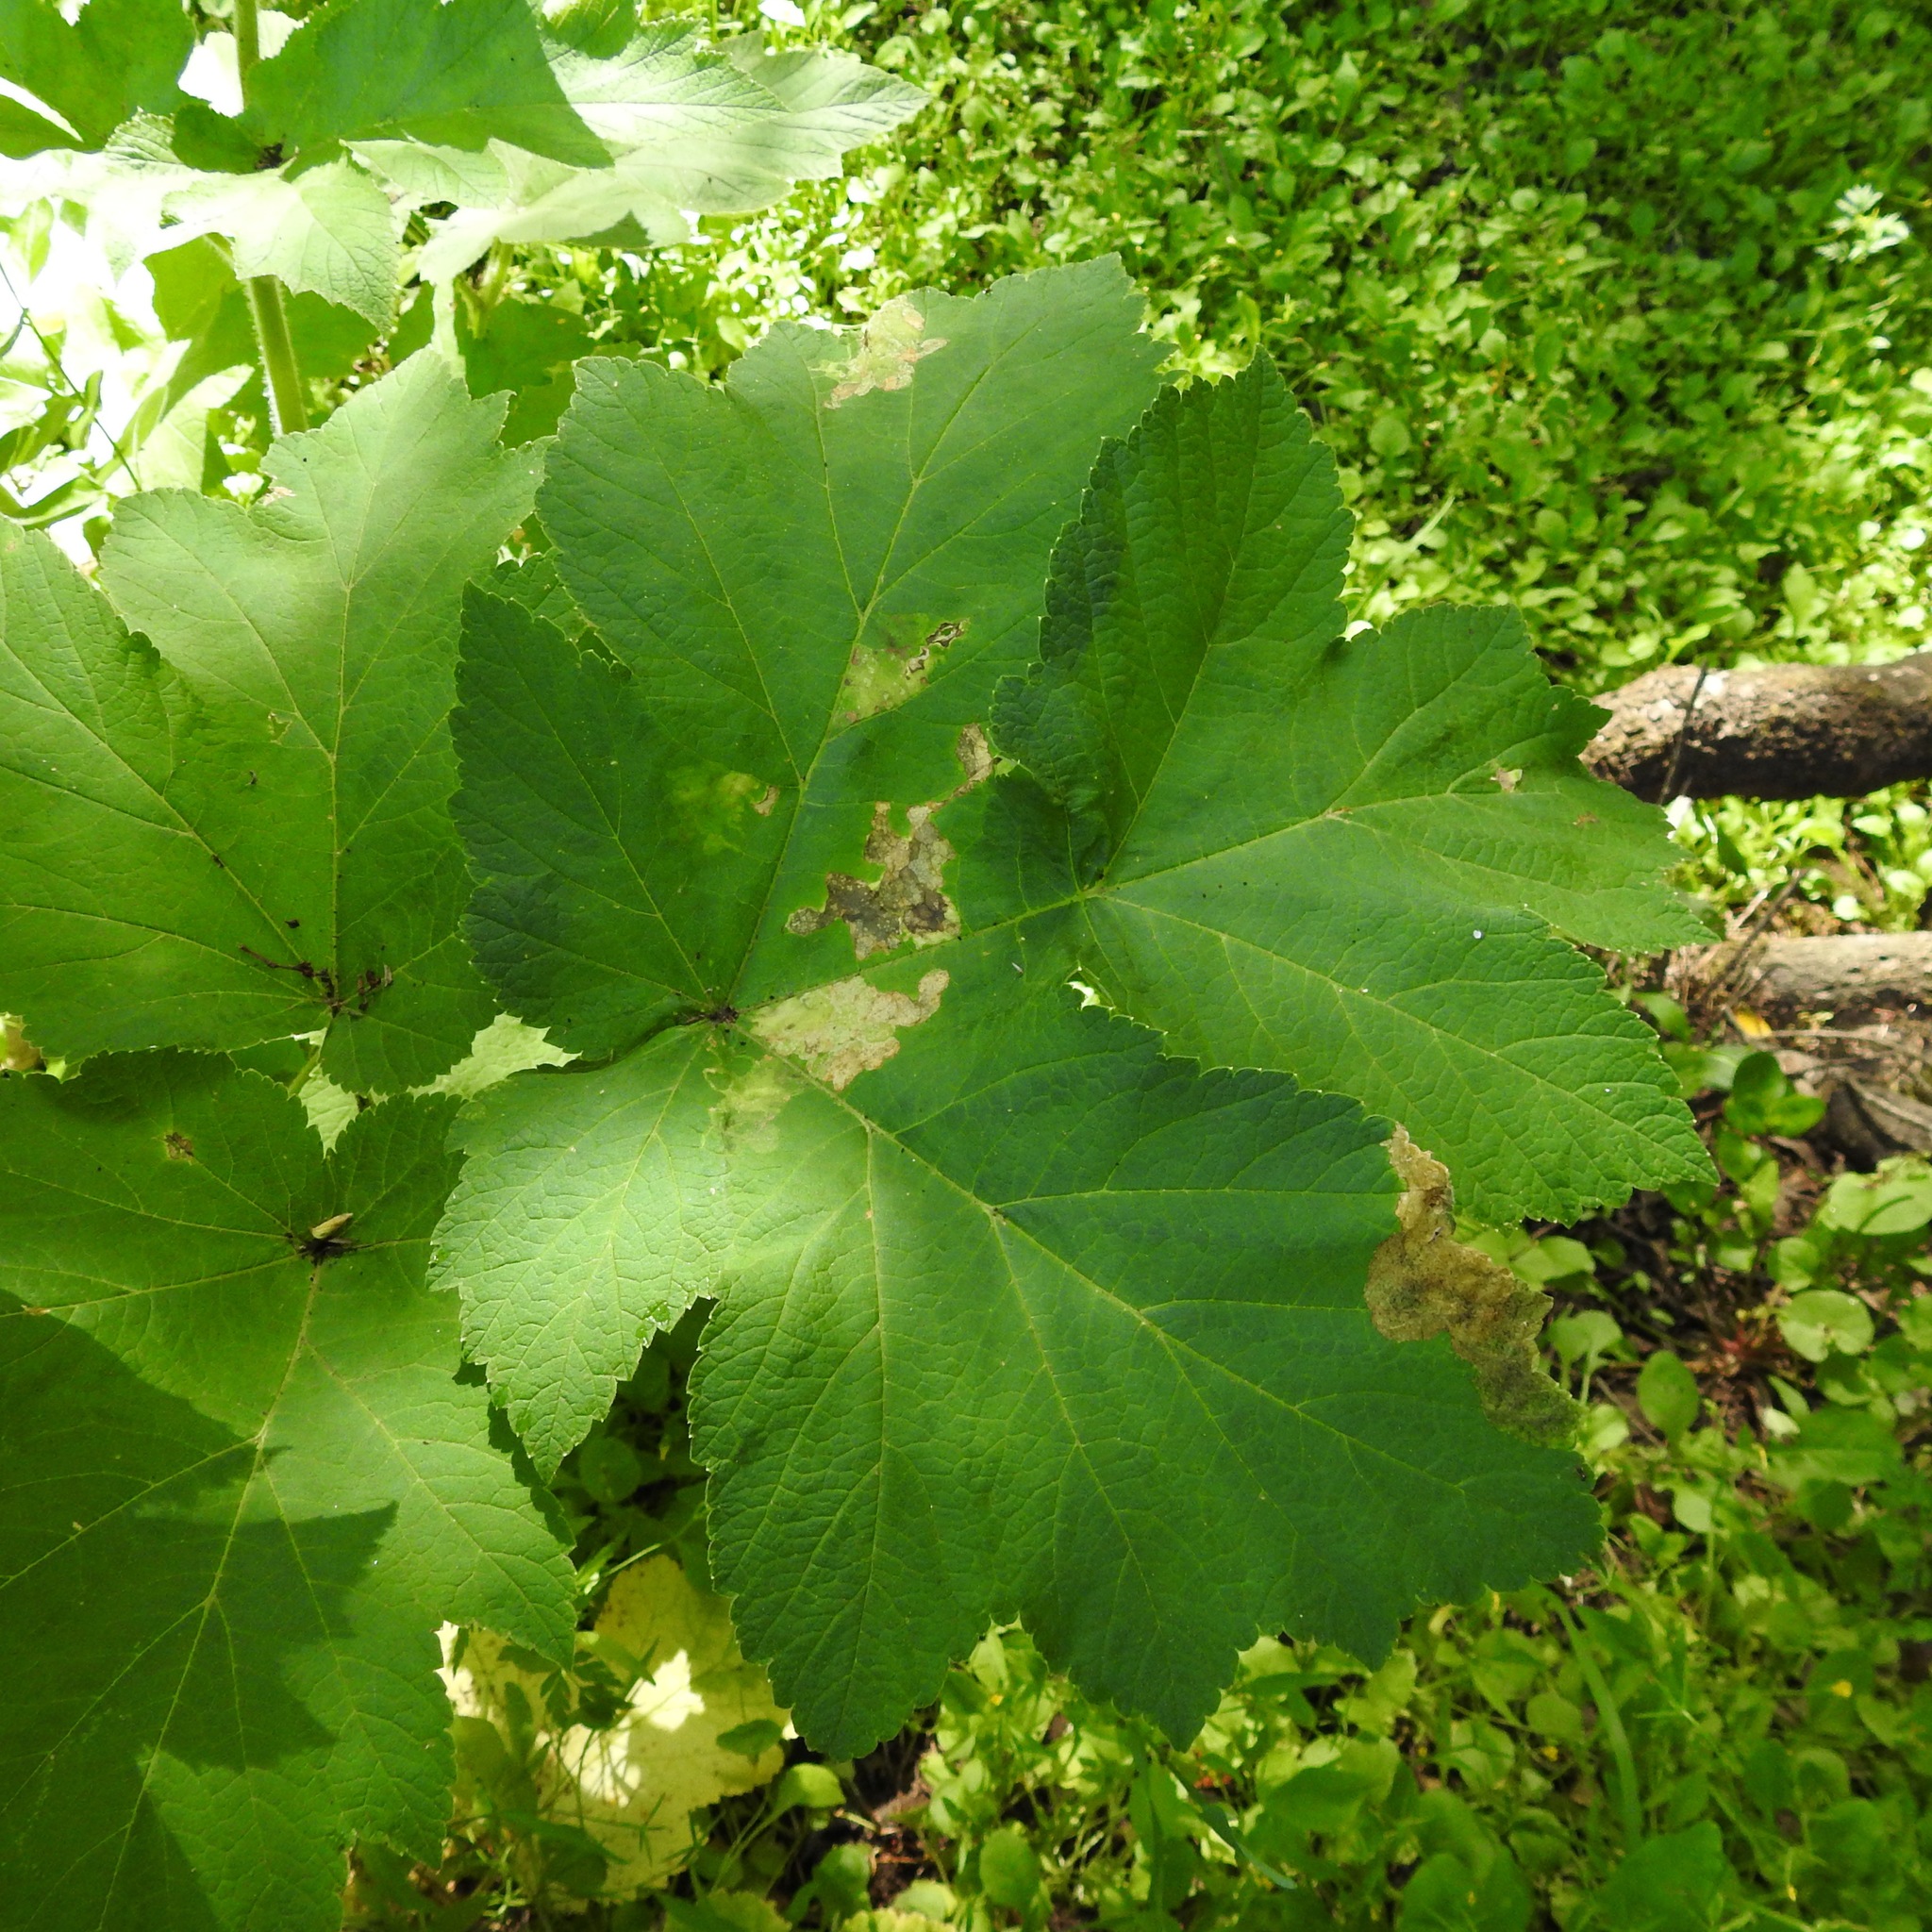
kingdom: Plantae
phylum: Tracheophyta
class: Magnoliopsida
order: Apiales
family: Apiaceae
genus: Heracleum
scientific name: Heracleum maximum
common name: American cow parsnip
